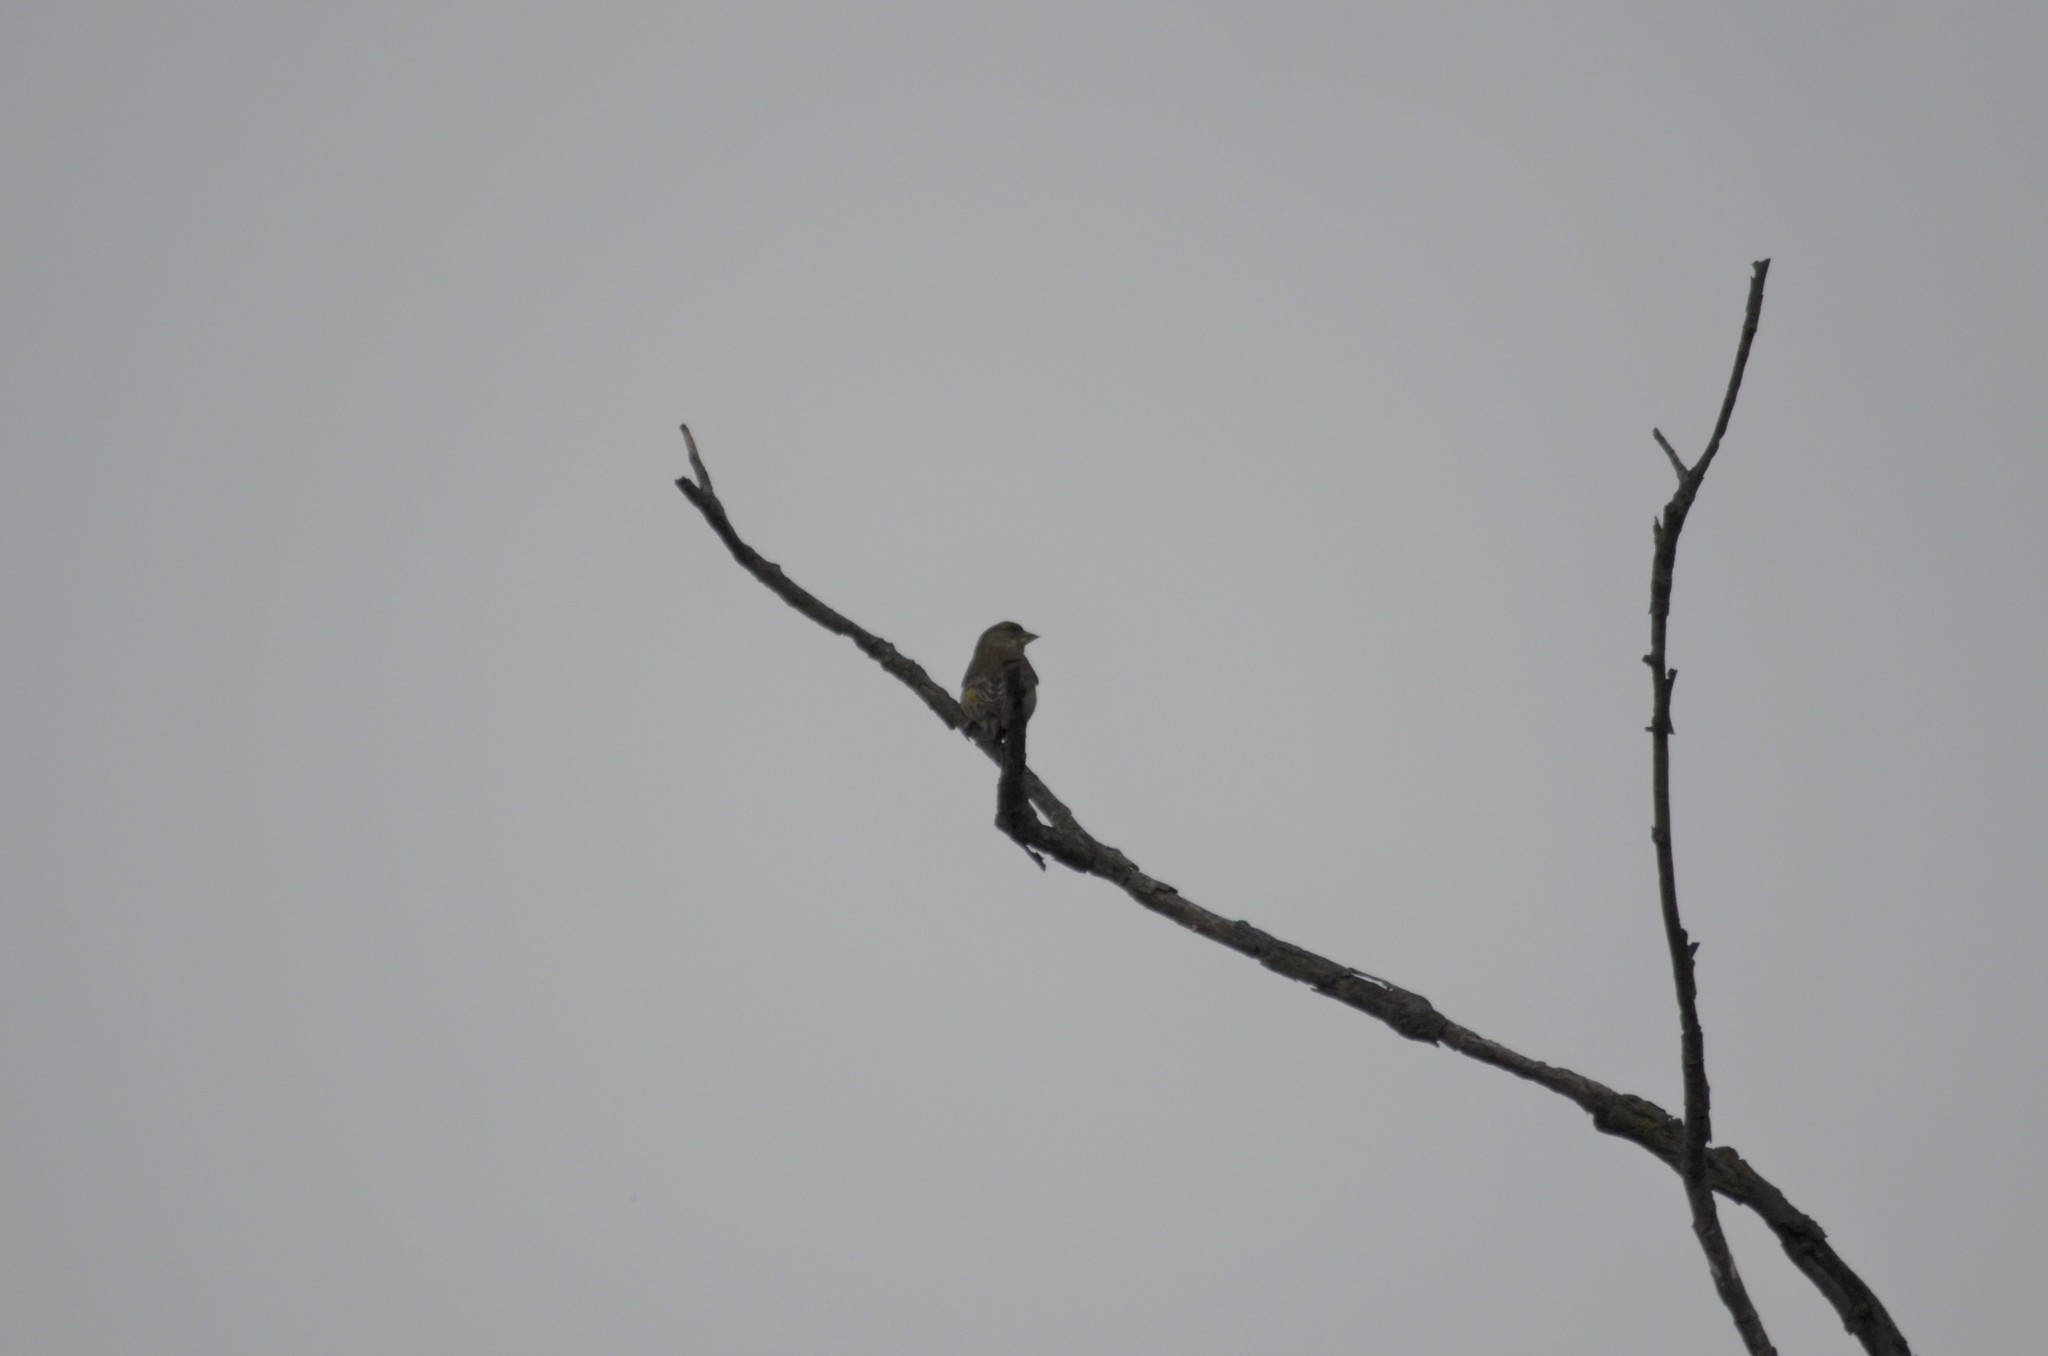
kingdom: Plantae
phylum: Tracheophyta
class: Liliopsida
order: Poales
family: Poaceae
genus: Chloris
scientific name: Chloris chloris
